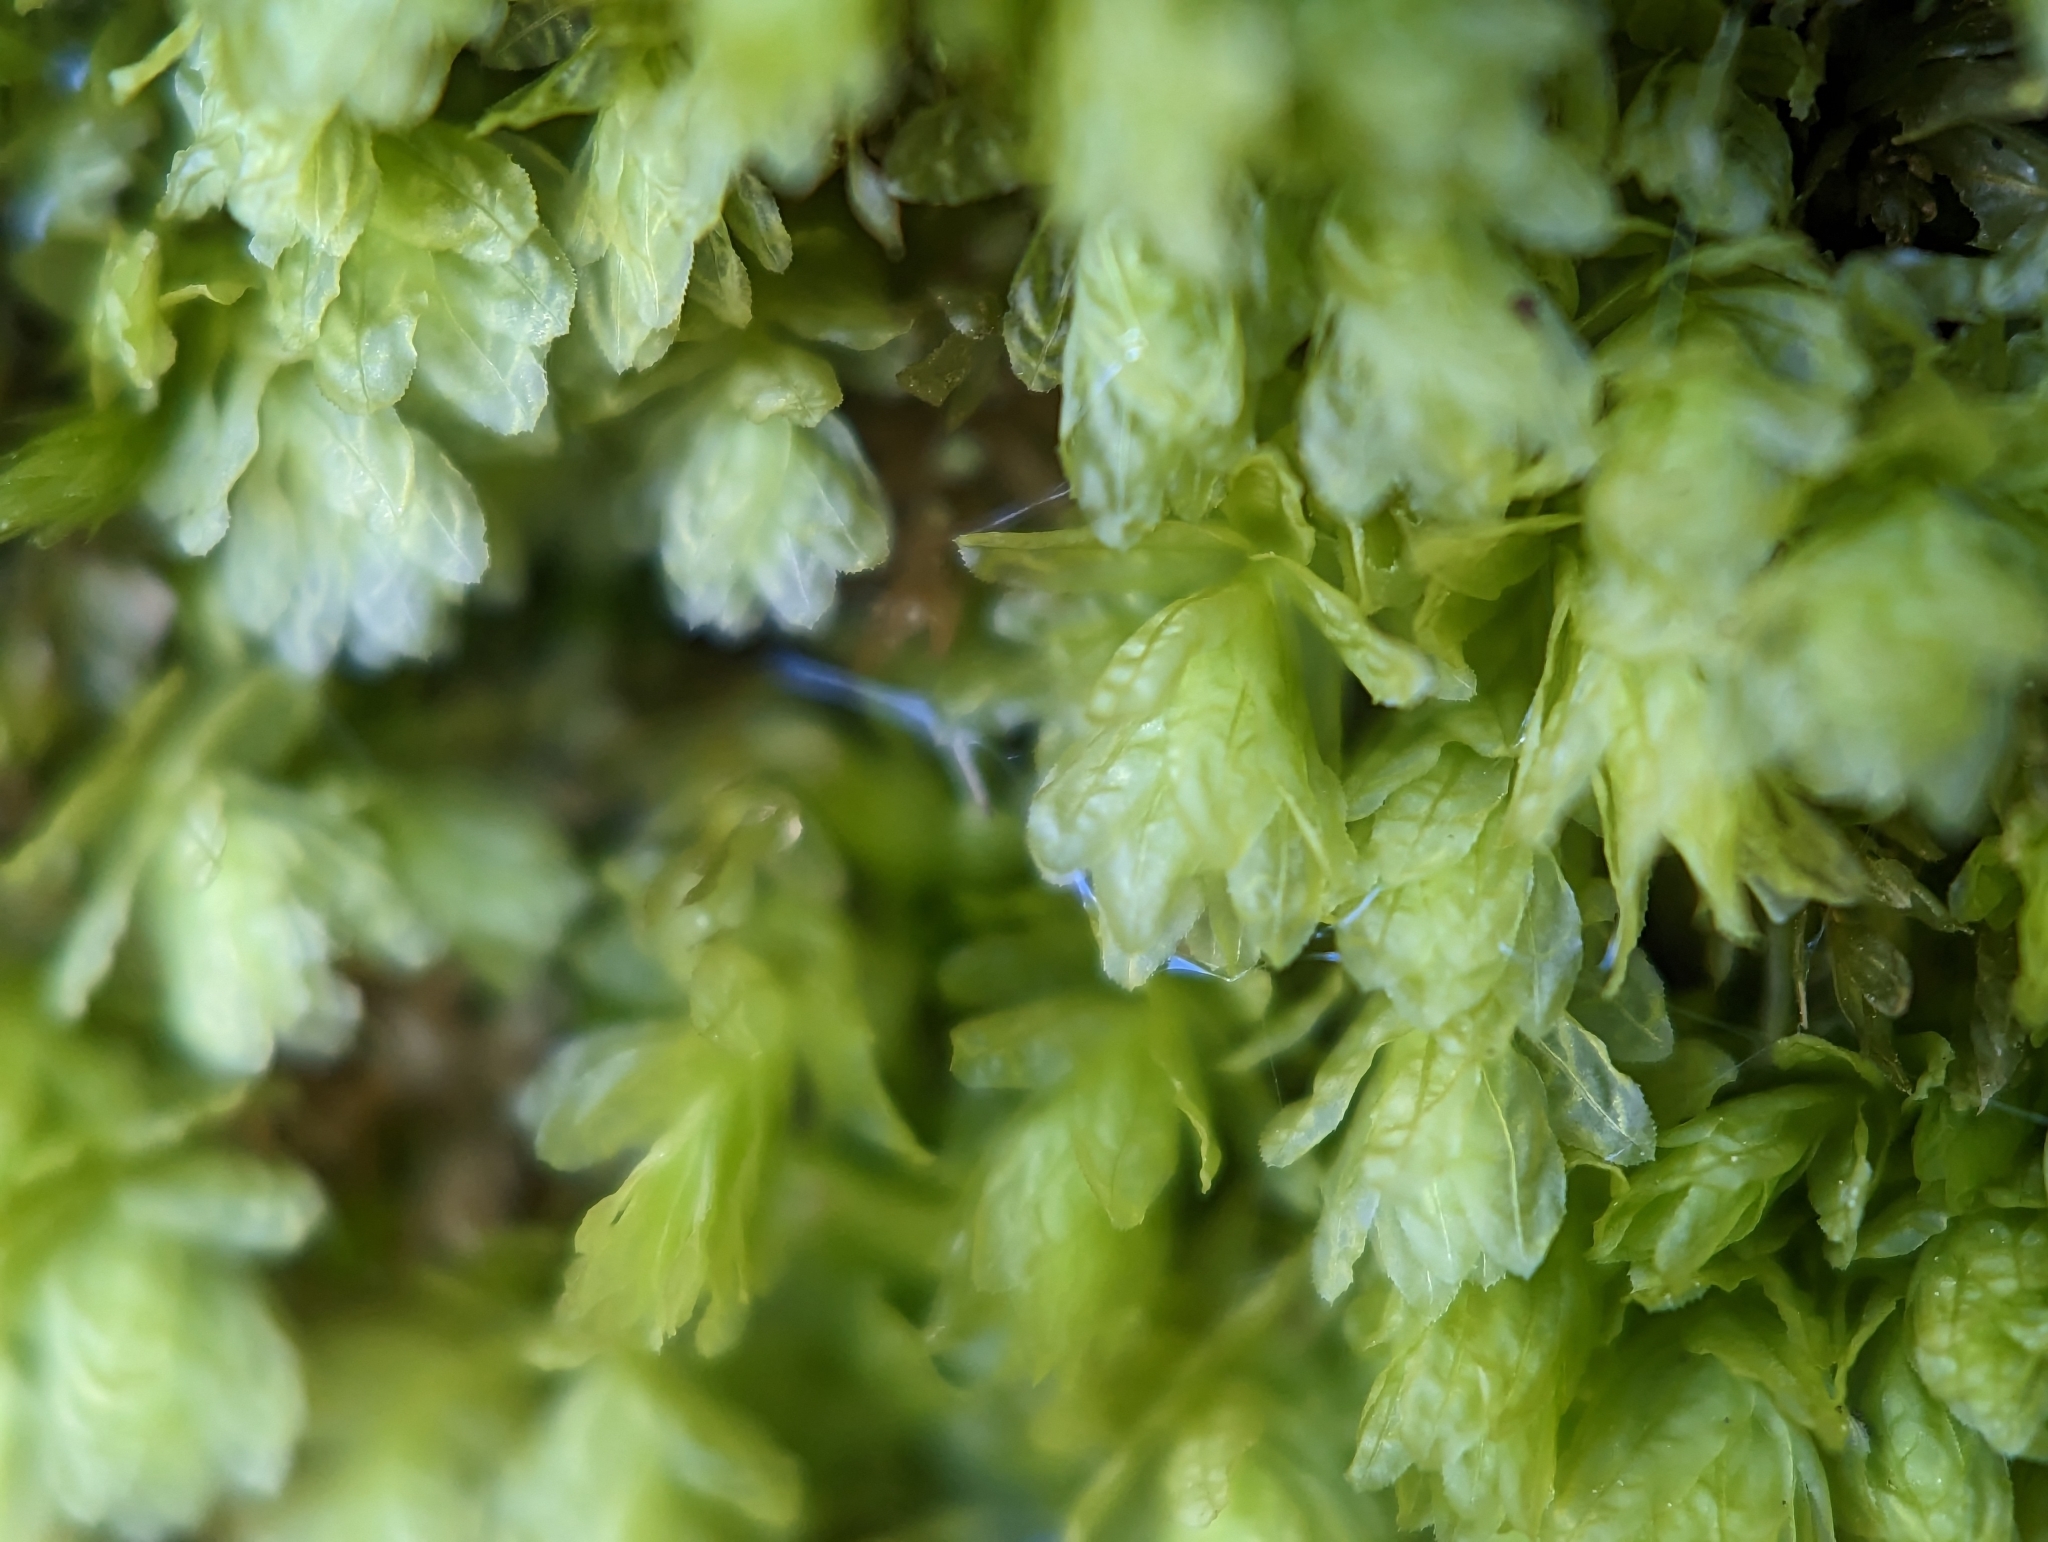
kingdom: Plantae
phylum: Bryophyta
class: Bryopsida
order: Aulacomniales
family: Aulacomniaceae
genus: Aulacomnium
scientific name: Aulacomnium heterostichum
